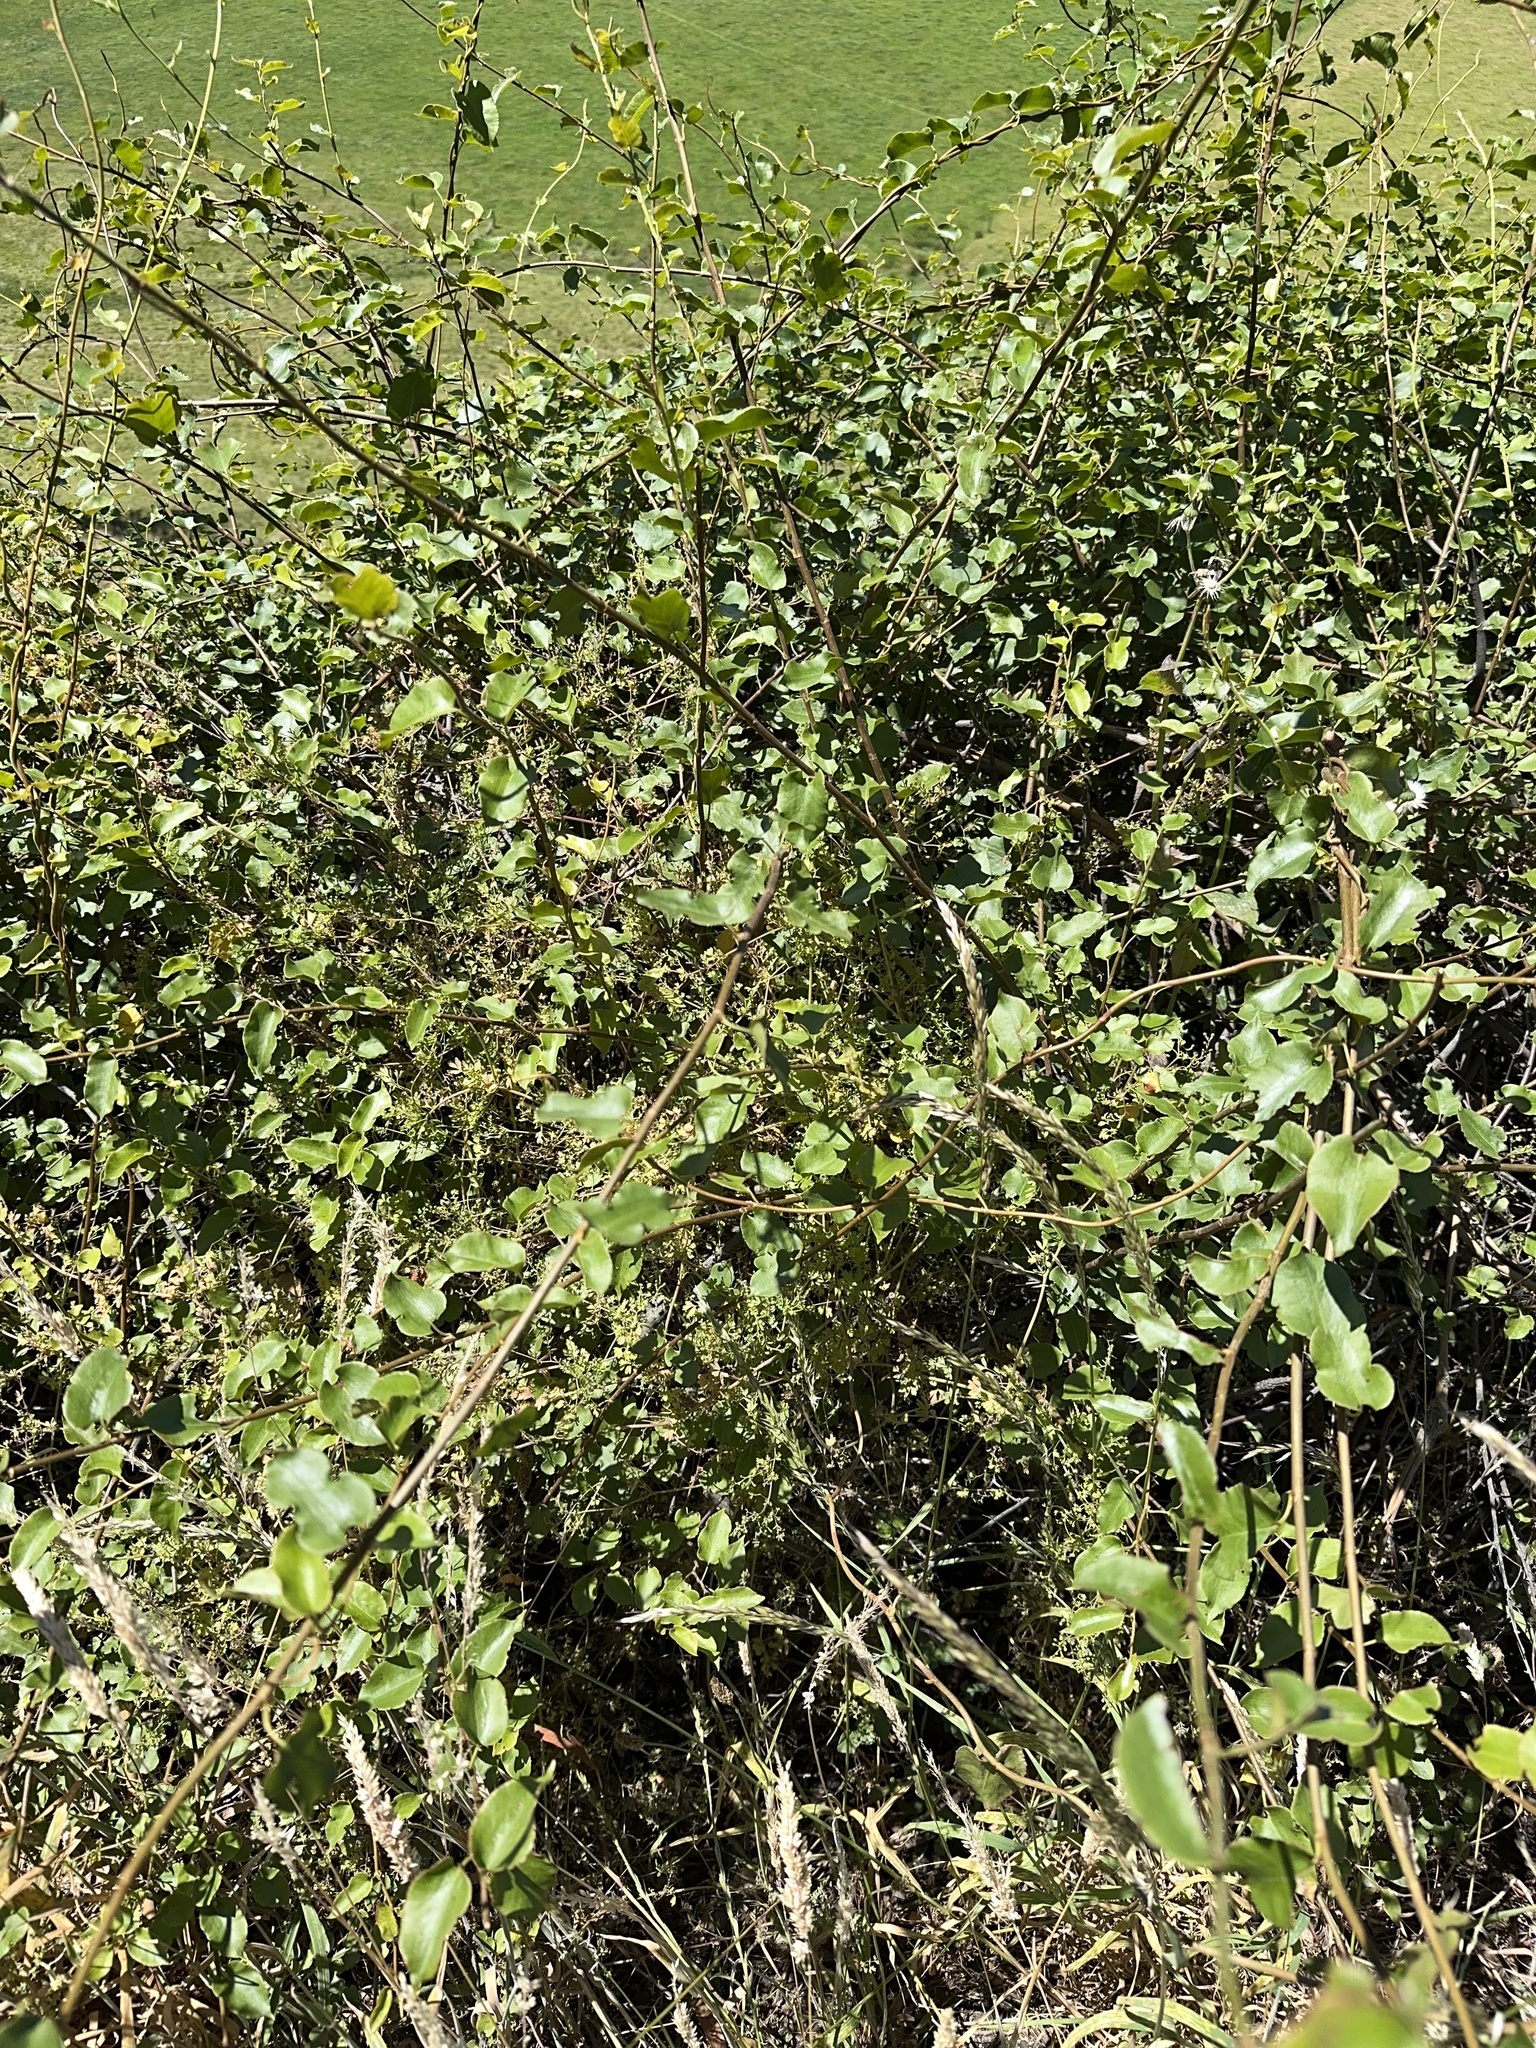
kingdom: Plantae
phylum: Tracheophyta
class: Magnoliopsida
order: Caryophyllales
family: Polygonaceae
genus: Muehlenbeckia
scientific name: Muehlenbeckia australis
